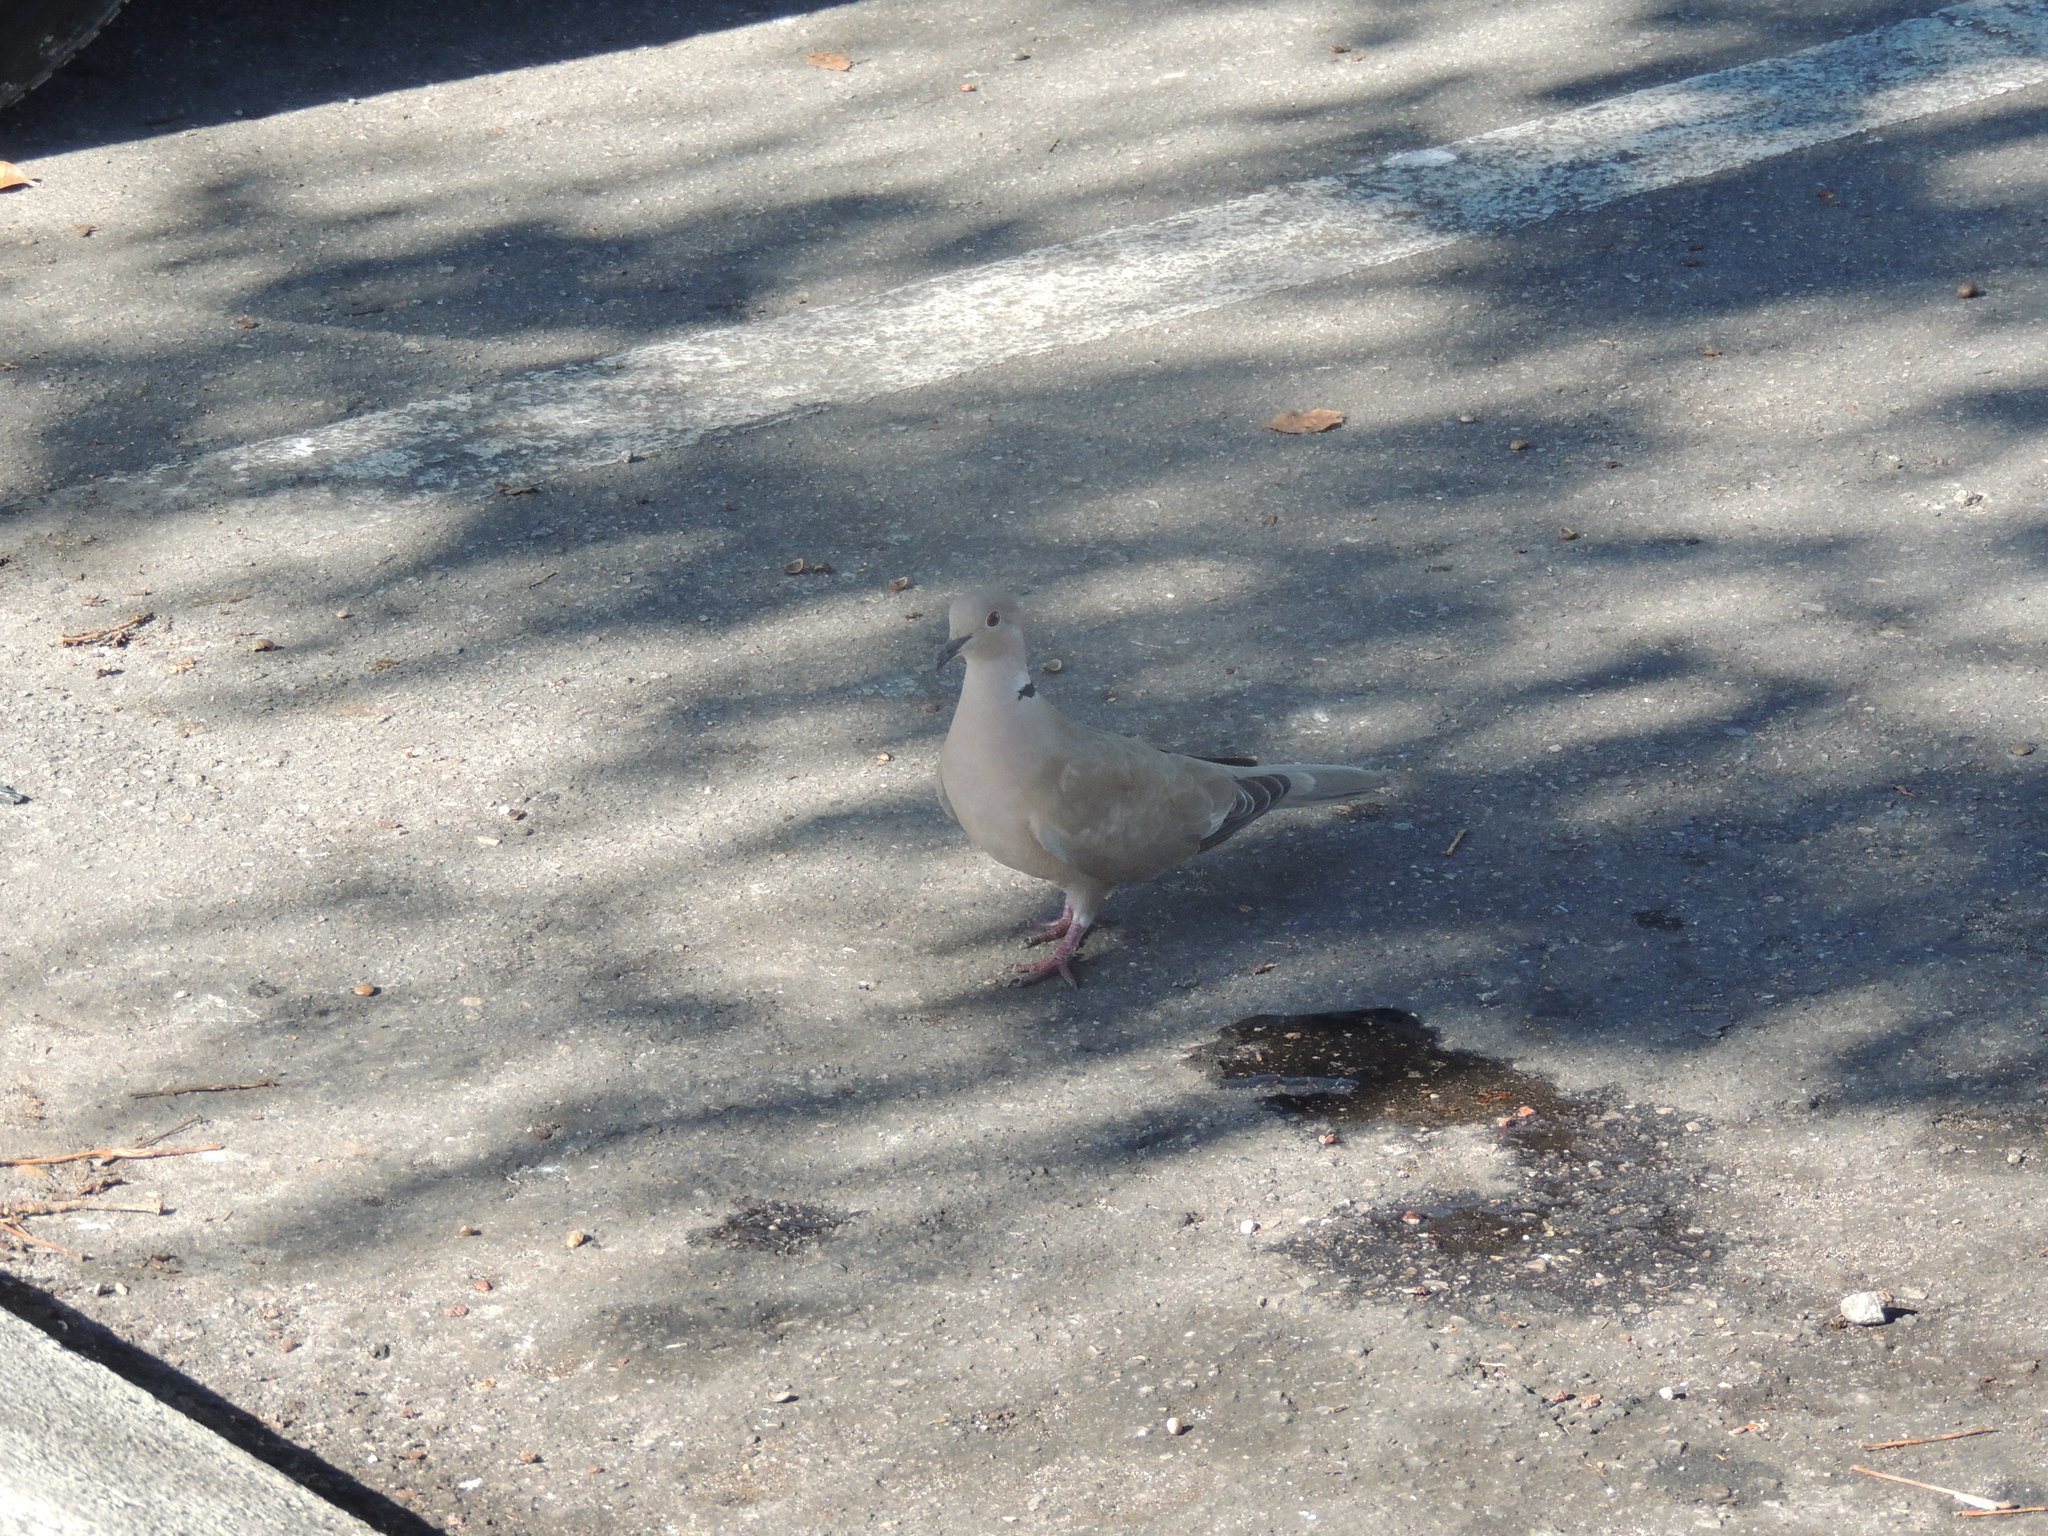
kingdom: Animalia
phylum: Chordata
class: Aves
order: Columbiformes
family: Columbidae
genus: Streptopelia
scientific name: Streptopelia decaocto
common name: Eurasian collared dove
